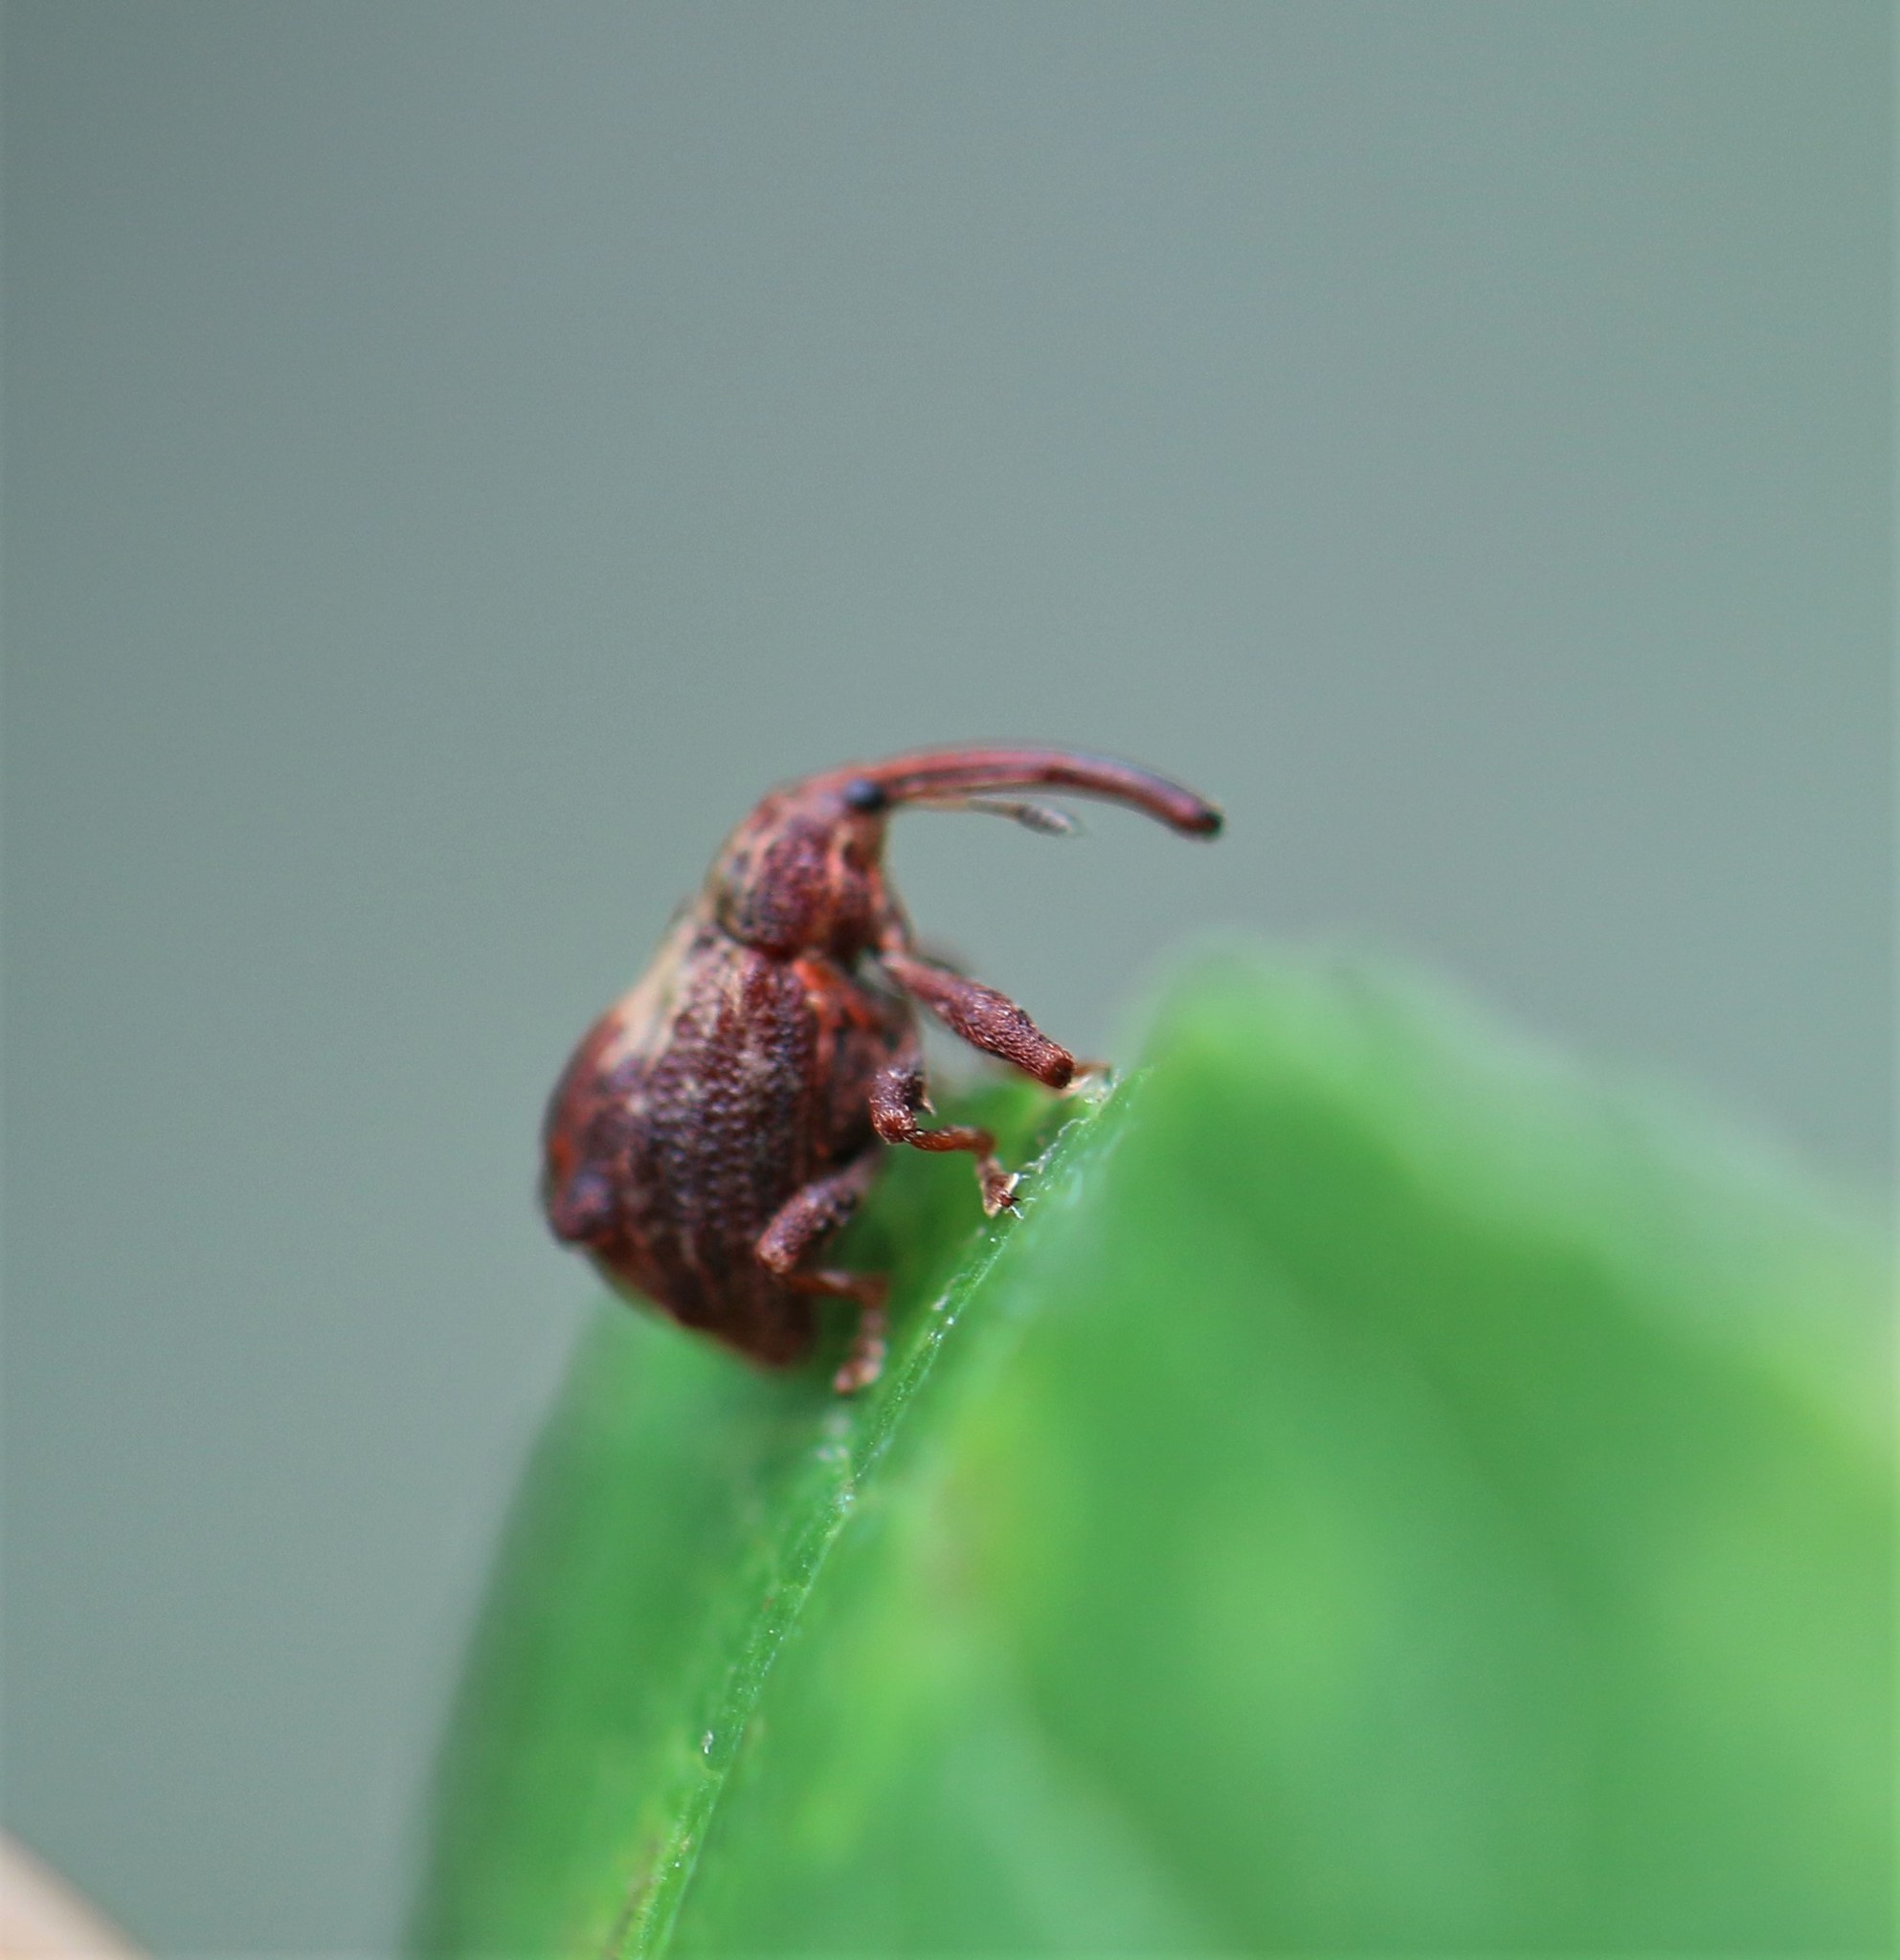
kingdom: Animalia
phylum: Arthropoda
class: Insecta
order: Coleoptera
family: Curculionidae
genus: Anthonomus
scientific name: Anthonomus quadrigibbus
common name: Apple curculio
